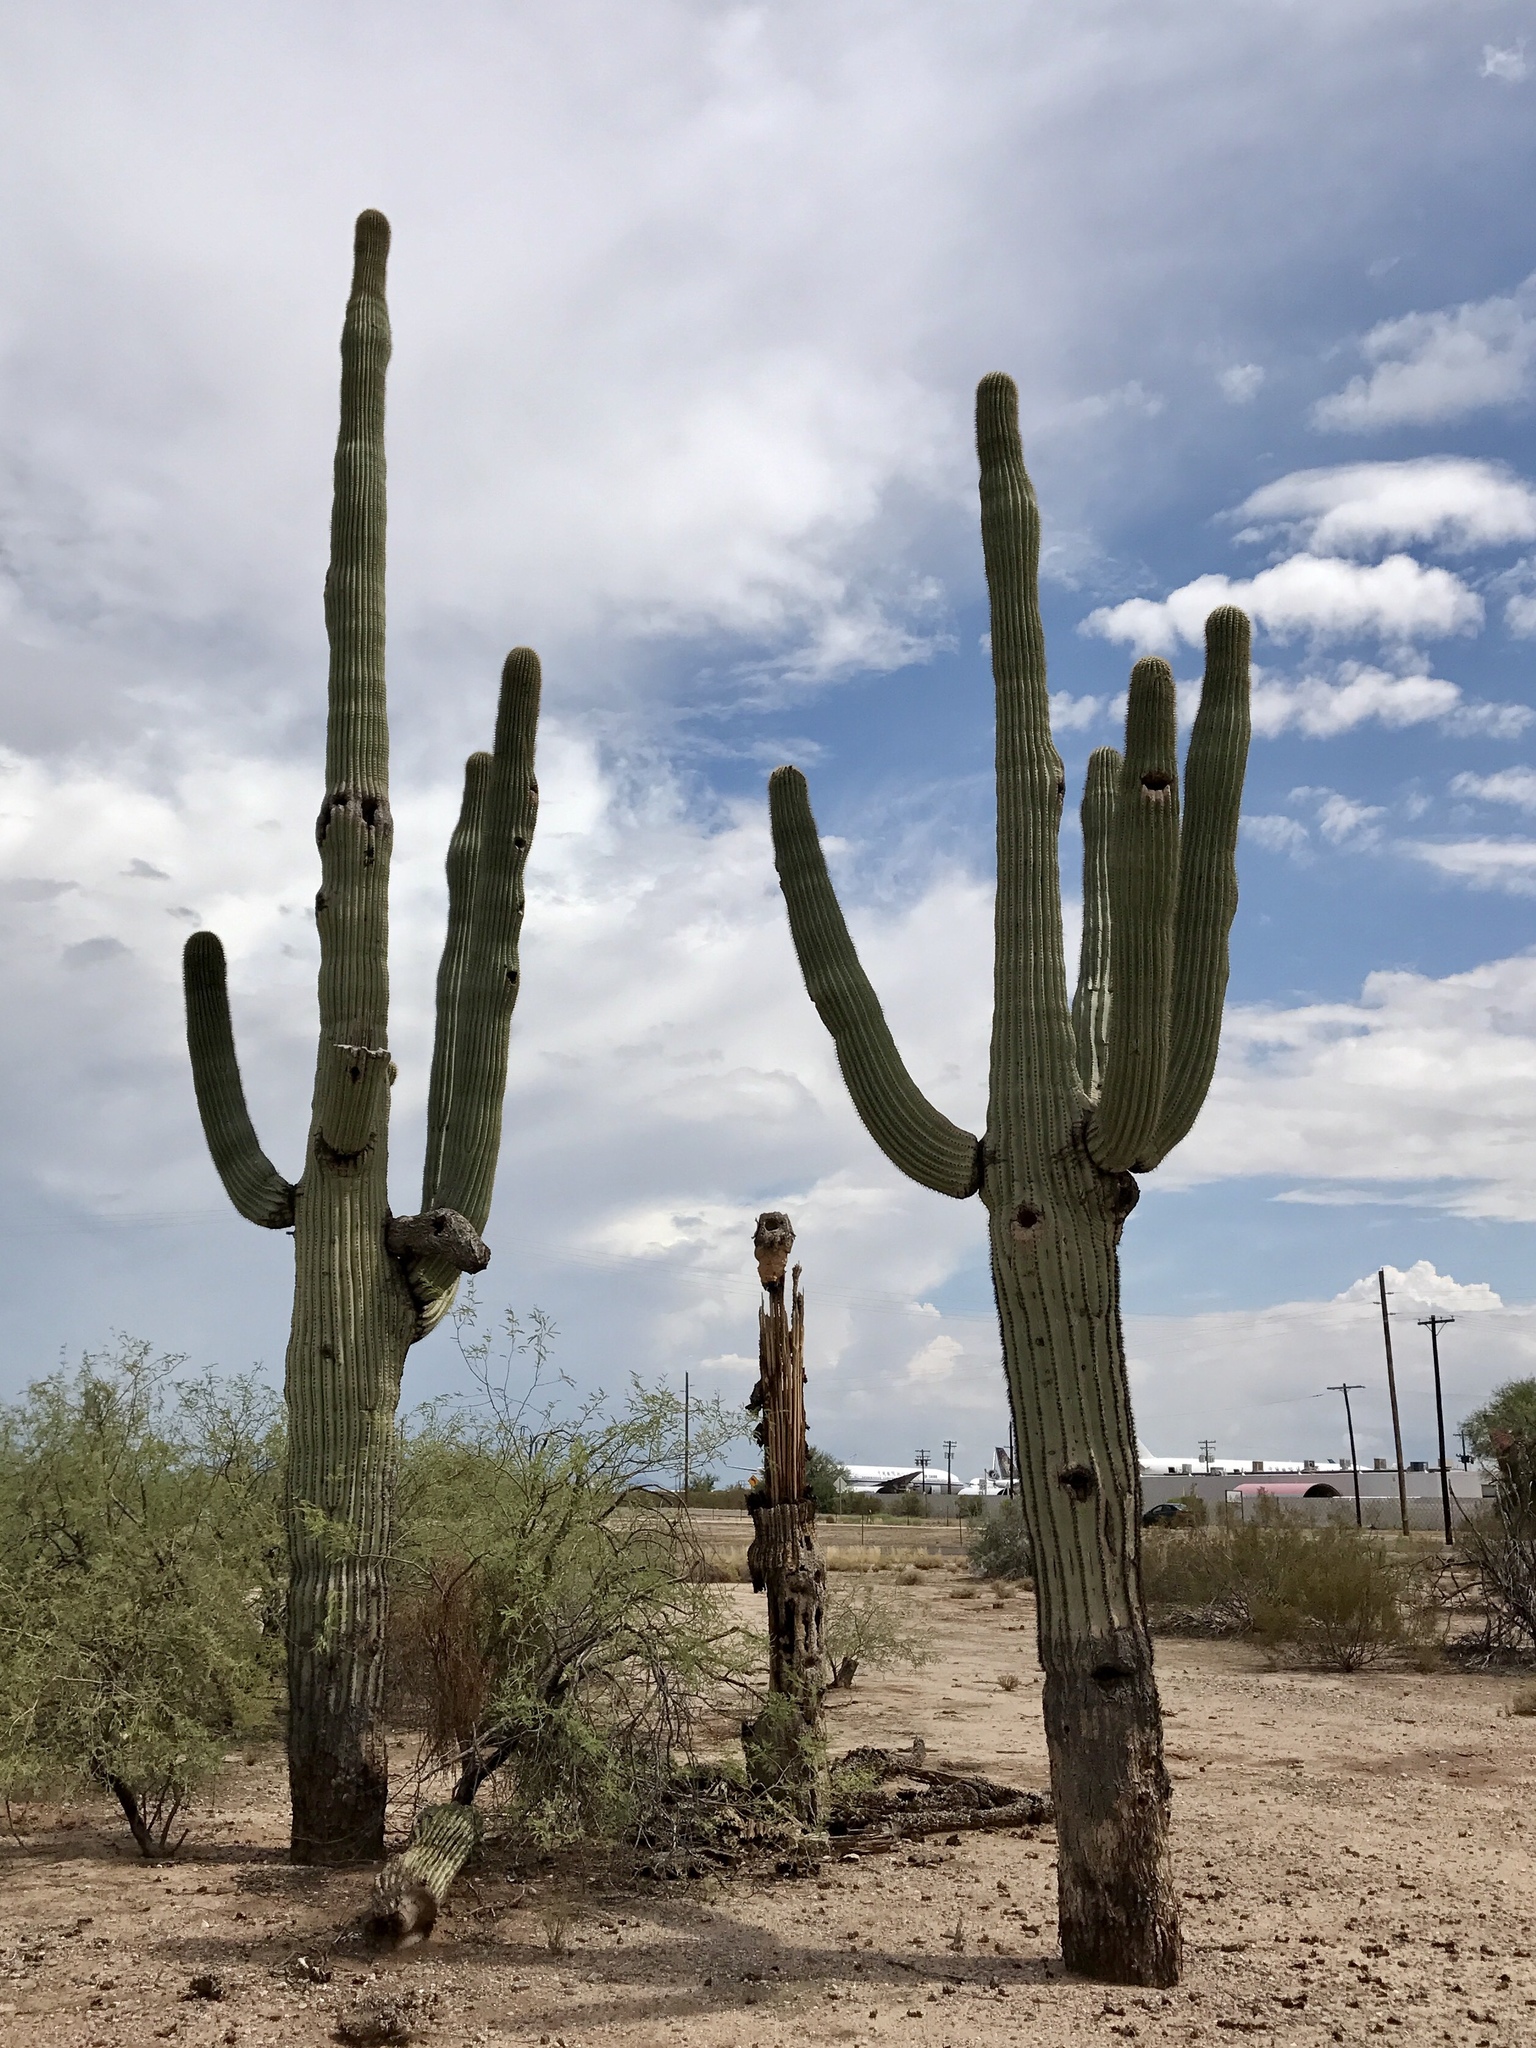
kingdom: Plantae
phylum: Tracheophyta
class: Magnoliopsida
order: Caryophyllales
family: Cactaceae
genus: Carnegiea
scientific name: Carnegiea gigantea
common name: Saguaro
